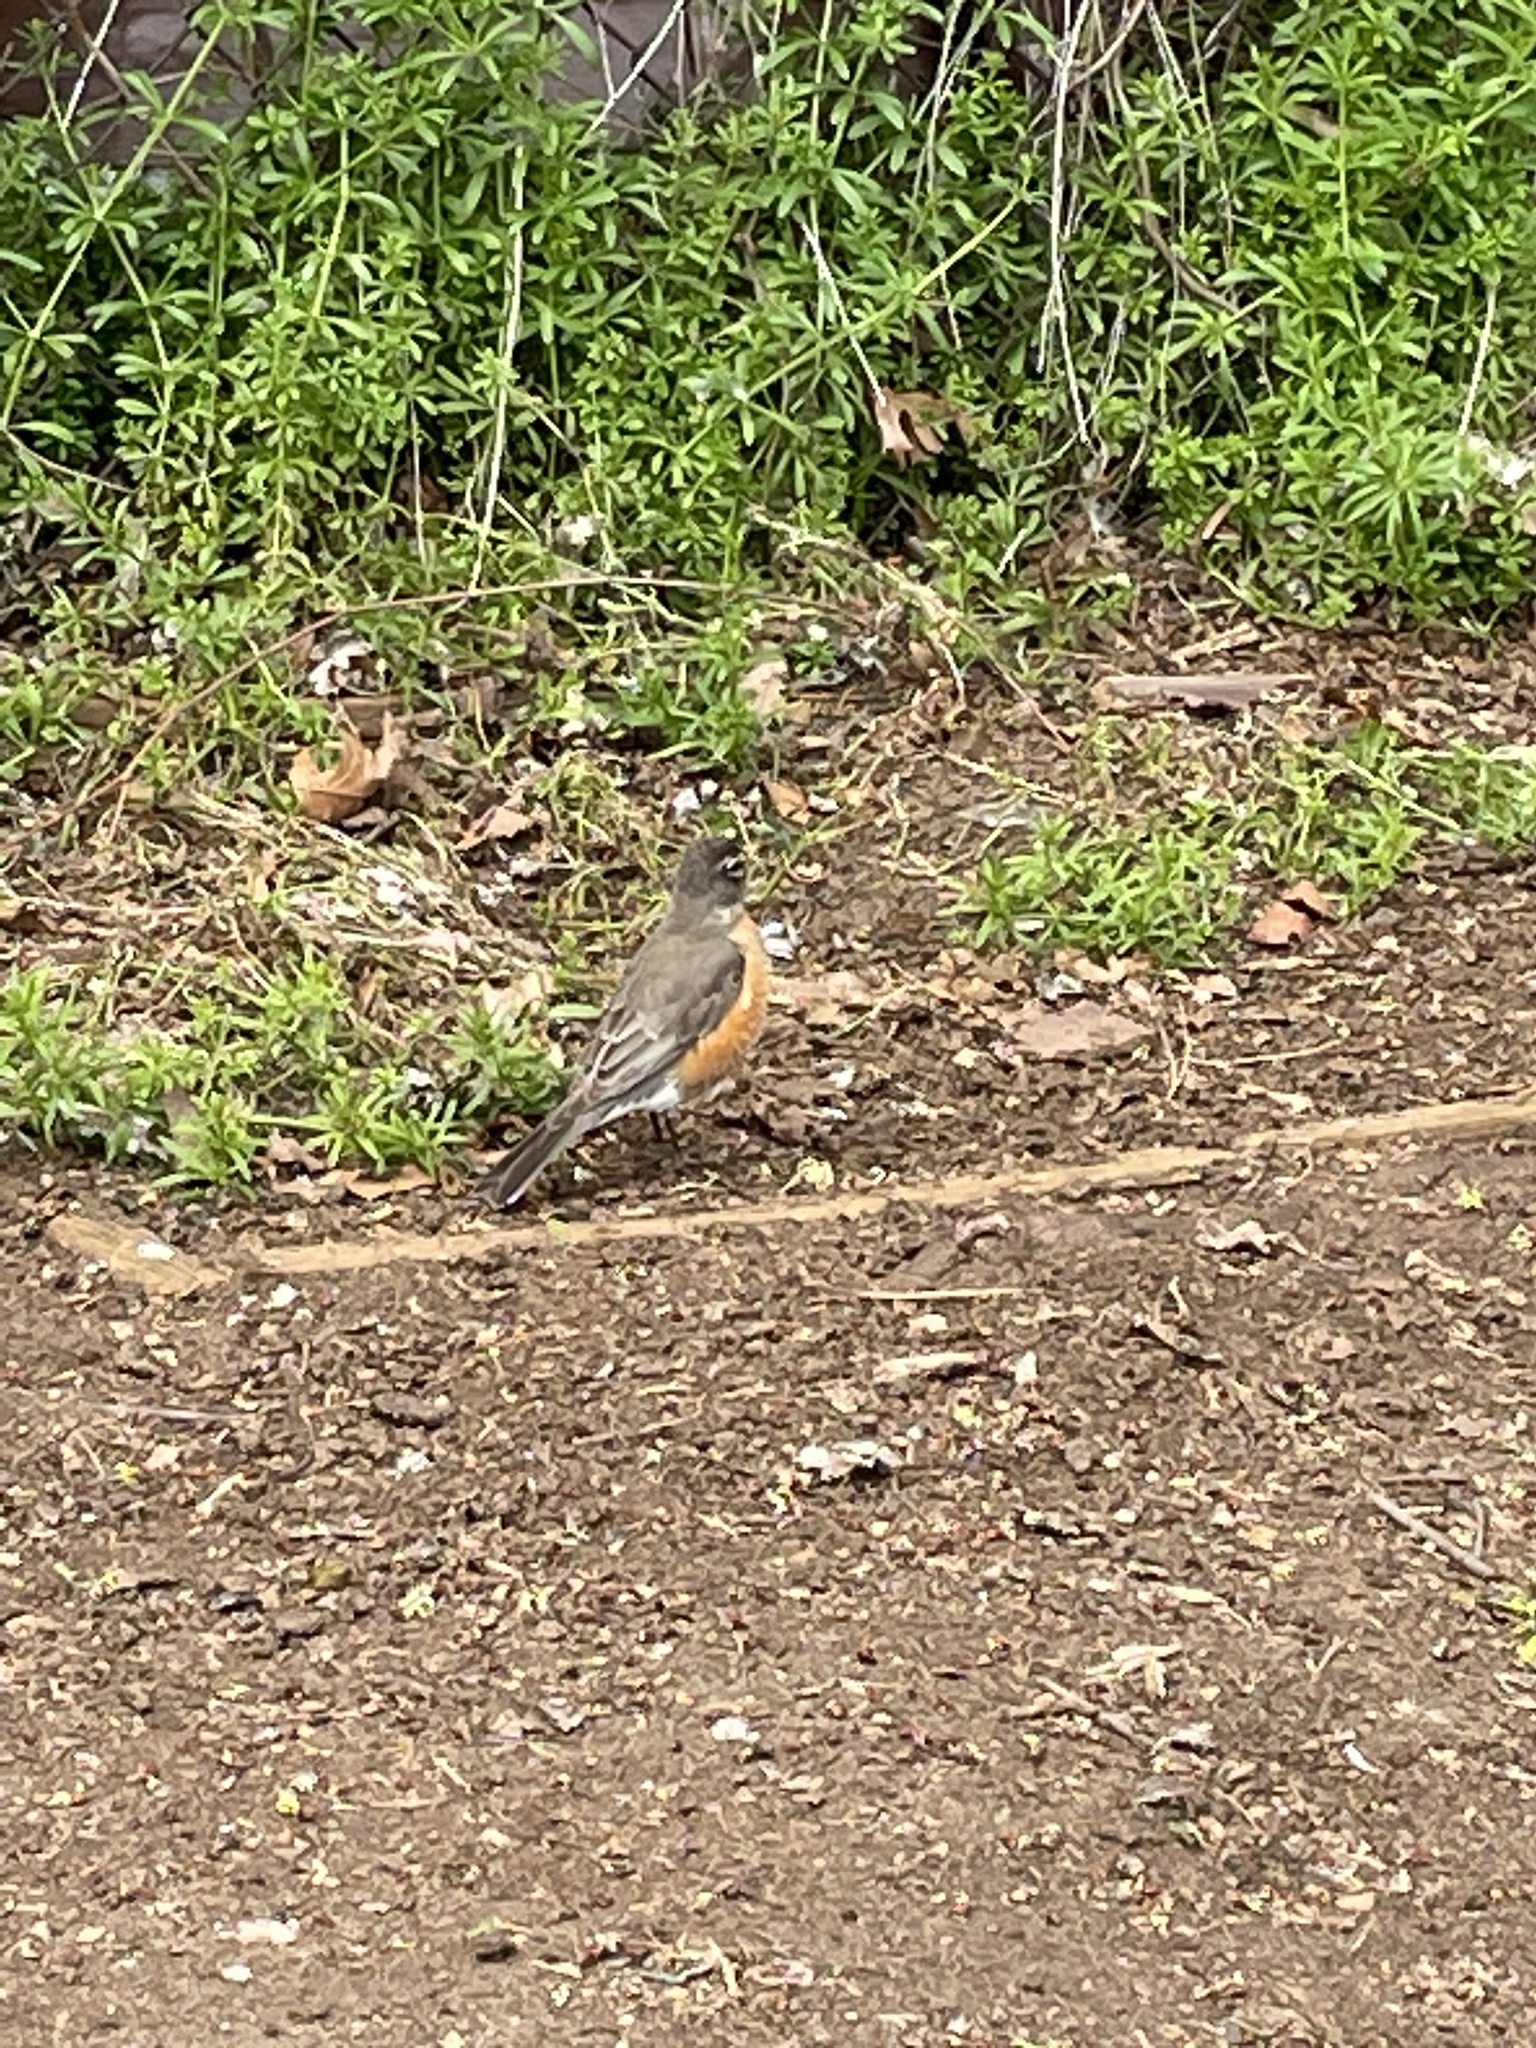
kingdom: Animalia
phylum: Chordata
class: Aves
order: Passeriformes
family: Turdidae
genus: Turdus
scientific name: Turdus migratorius
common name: American robin
